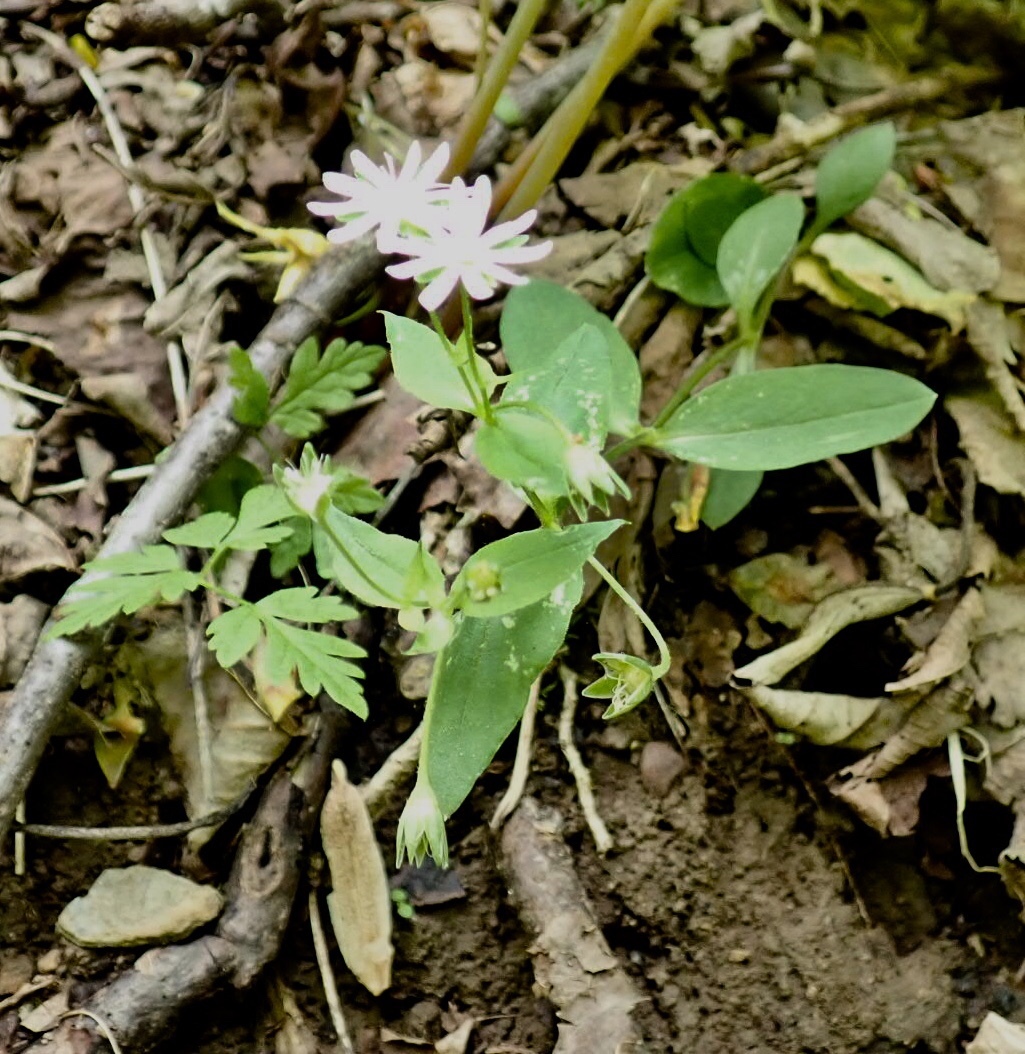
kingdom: Plantae
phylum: Tracheophyta
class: Magnoliopsida
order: Caryophyllales
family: Caryophyllaceae
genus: Stellaria
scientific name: Stellaria pubera
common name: Star chickweed
